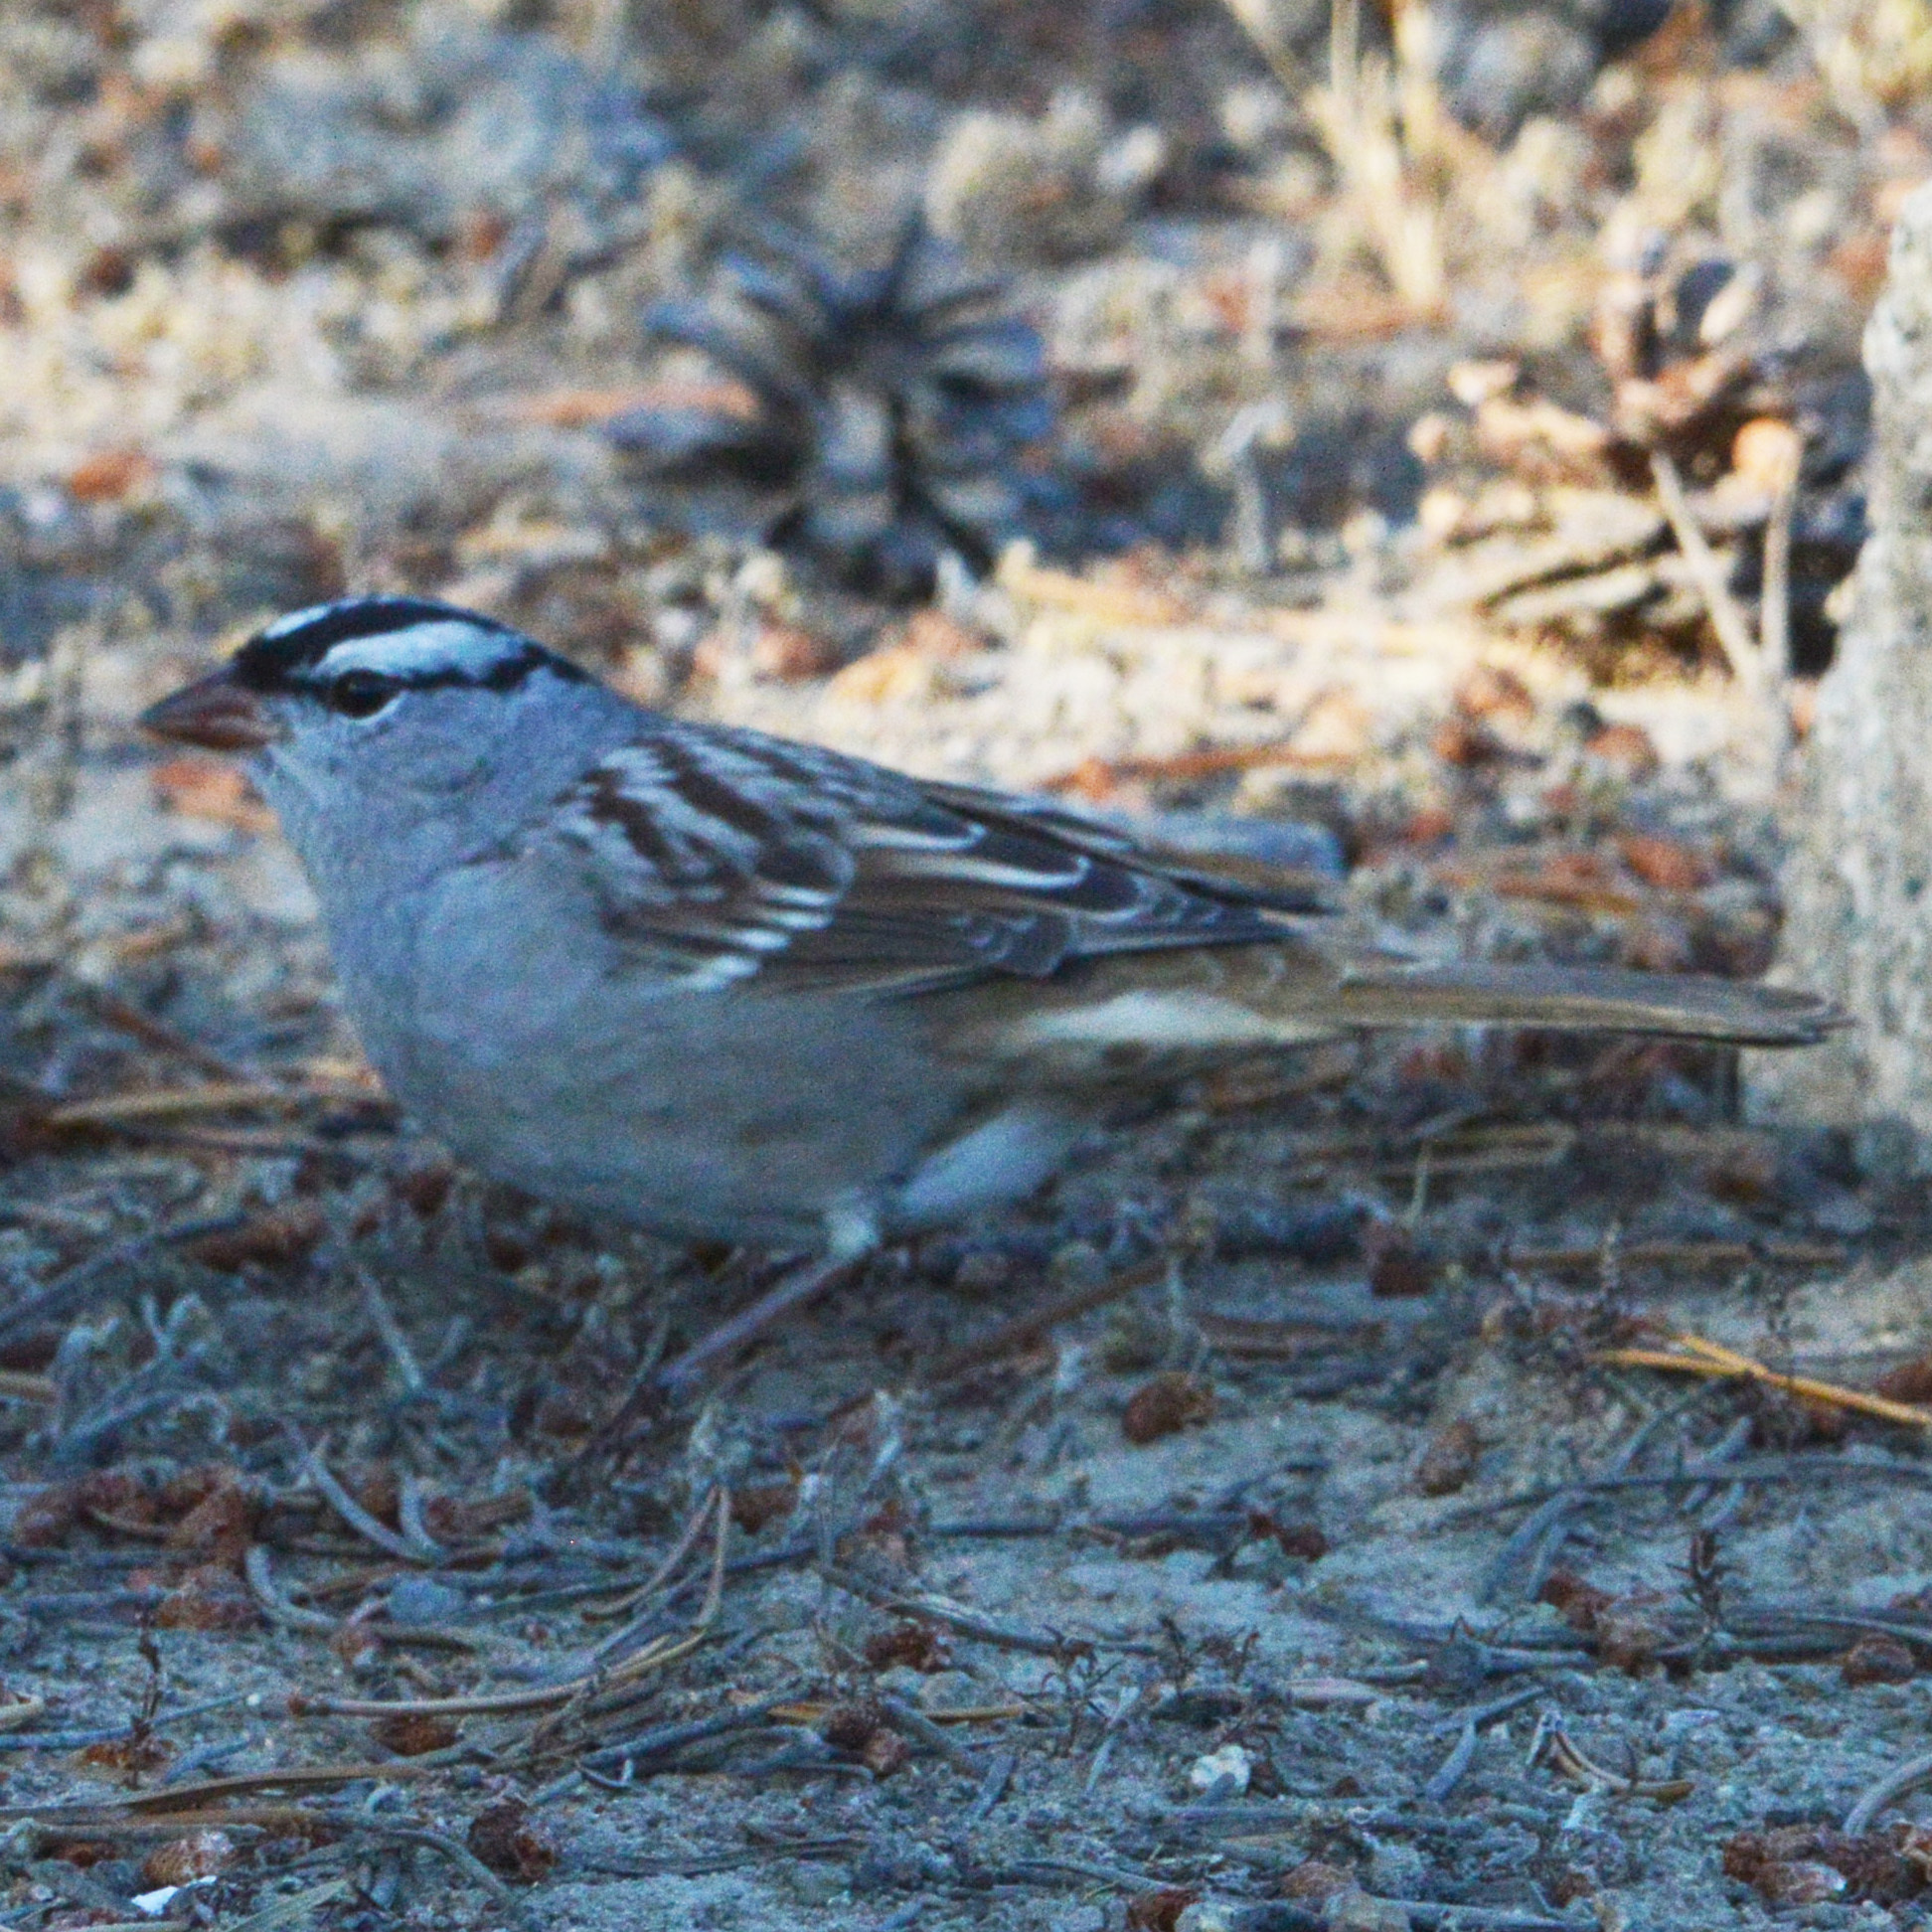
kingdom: Animalia
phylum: Chordata
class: Aves
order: Passeriformes
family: Passerellidae
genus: Zonotrichia
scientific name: Zonotrichia leucophrys
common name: White-crowned sparrow
